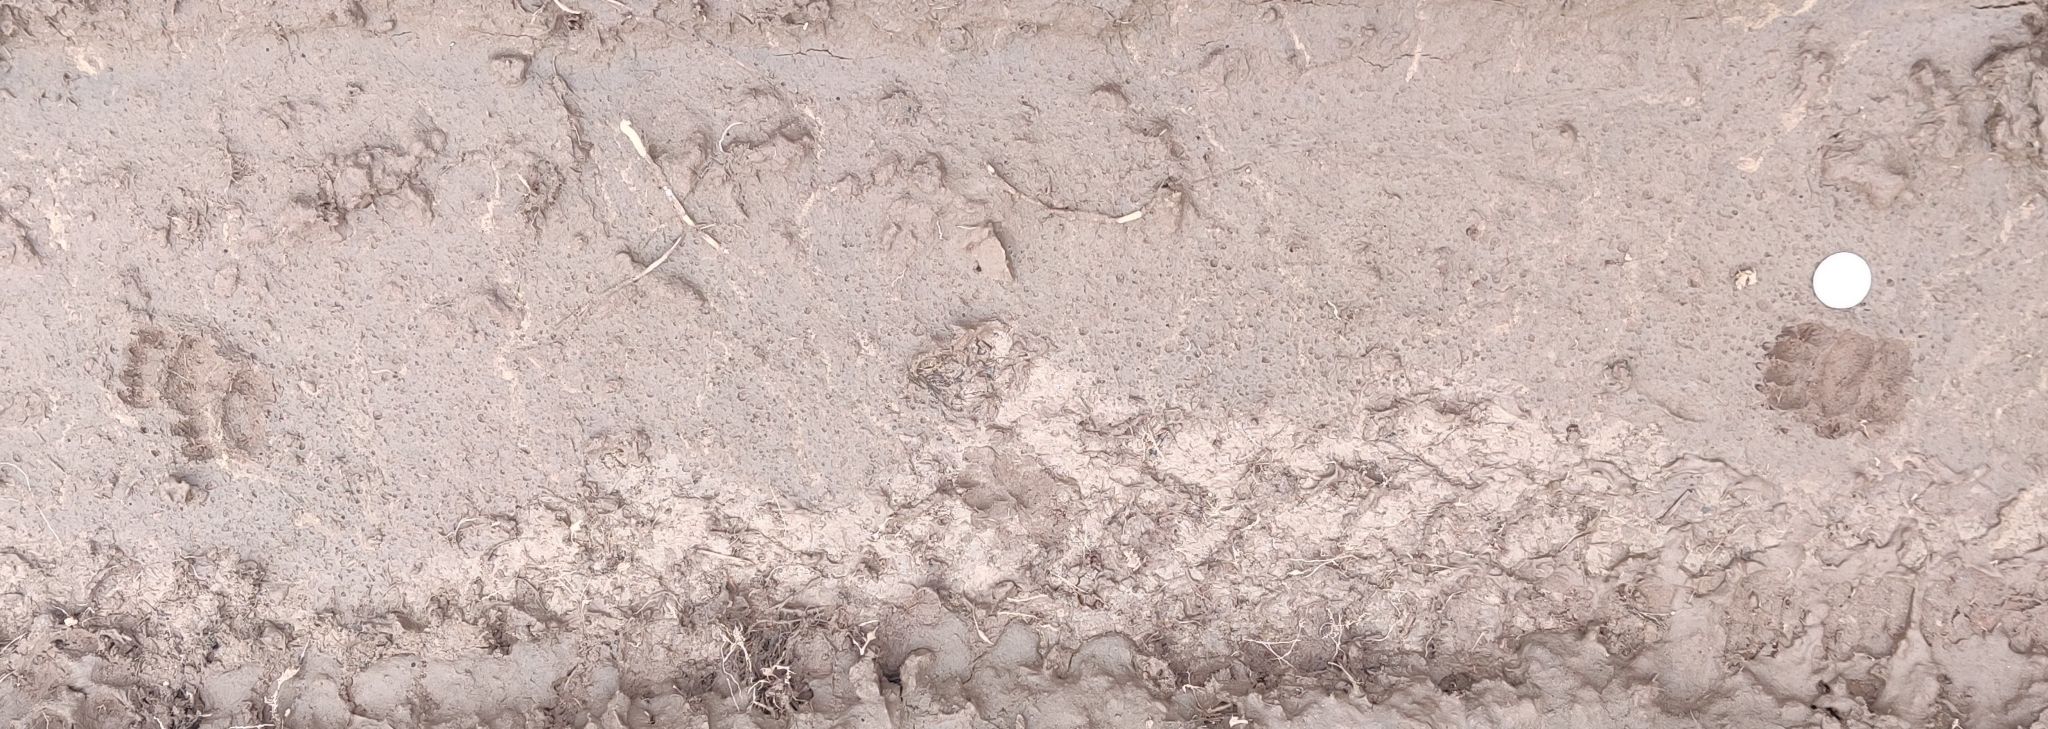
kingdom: Animalia
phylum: Chordata
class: Mammalia
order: Carnivora
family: Mustelidae
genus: Meles
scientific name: Meles meles
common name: Eurasian badger
